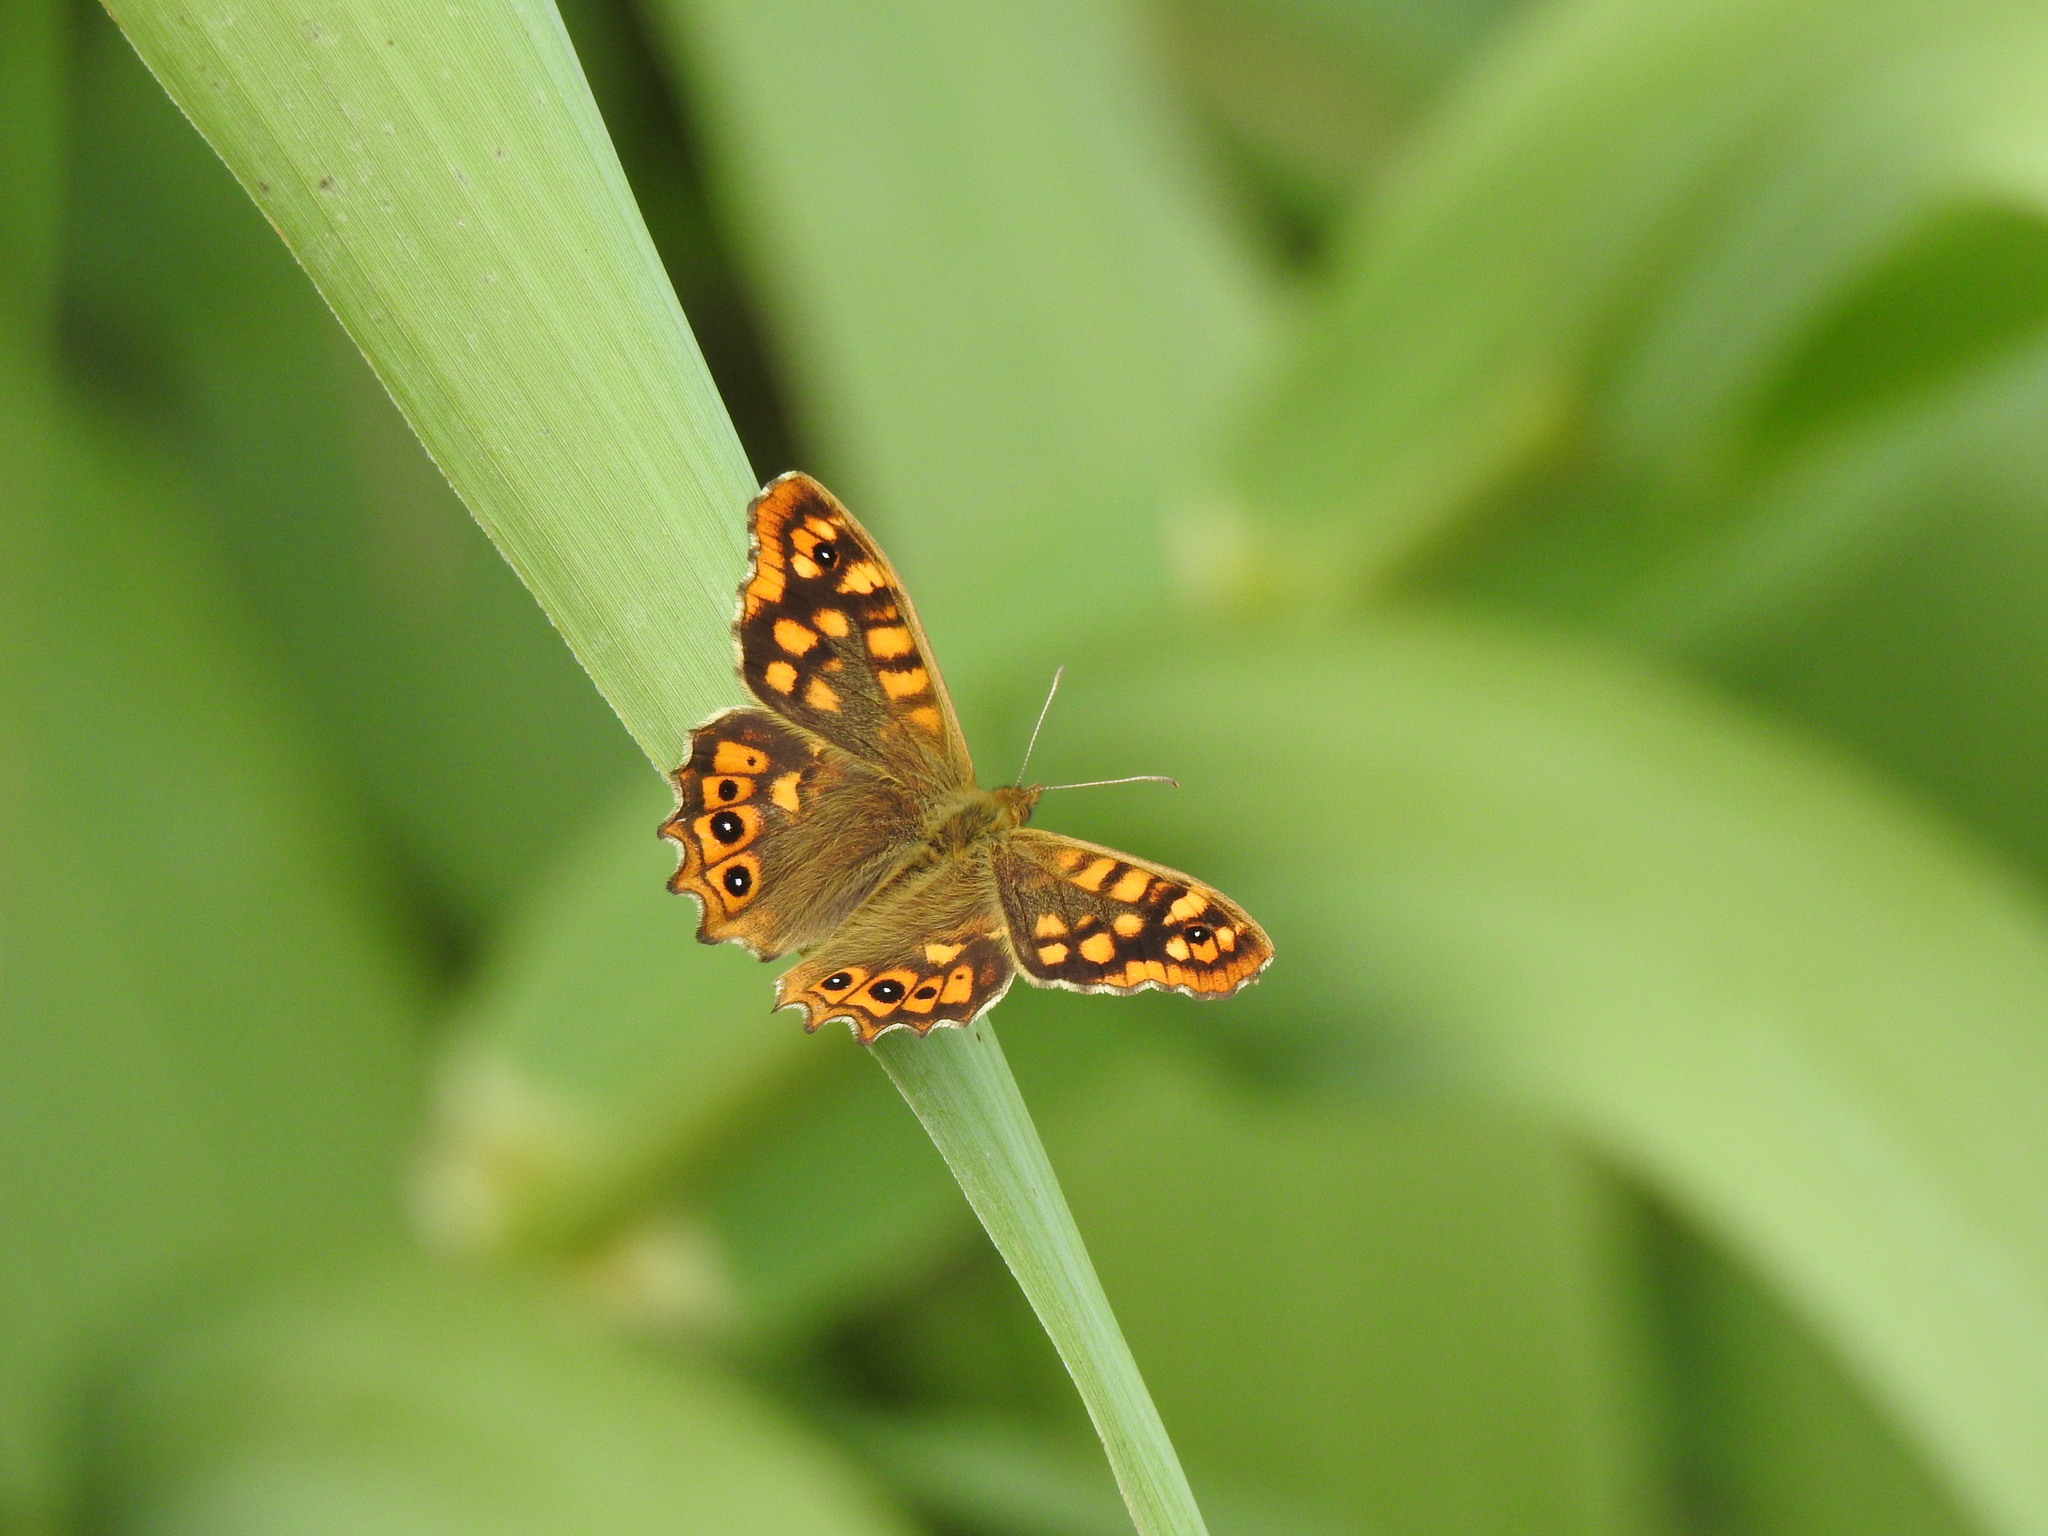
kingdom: Animalia
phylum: Arthropoda
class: Insecta
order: Lepidoptera
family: Nymphalidae
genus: Pararge
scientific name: Pararge aegeria
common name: Speckled wood
